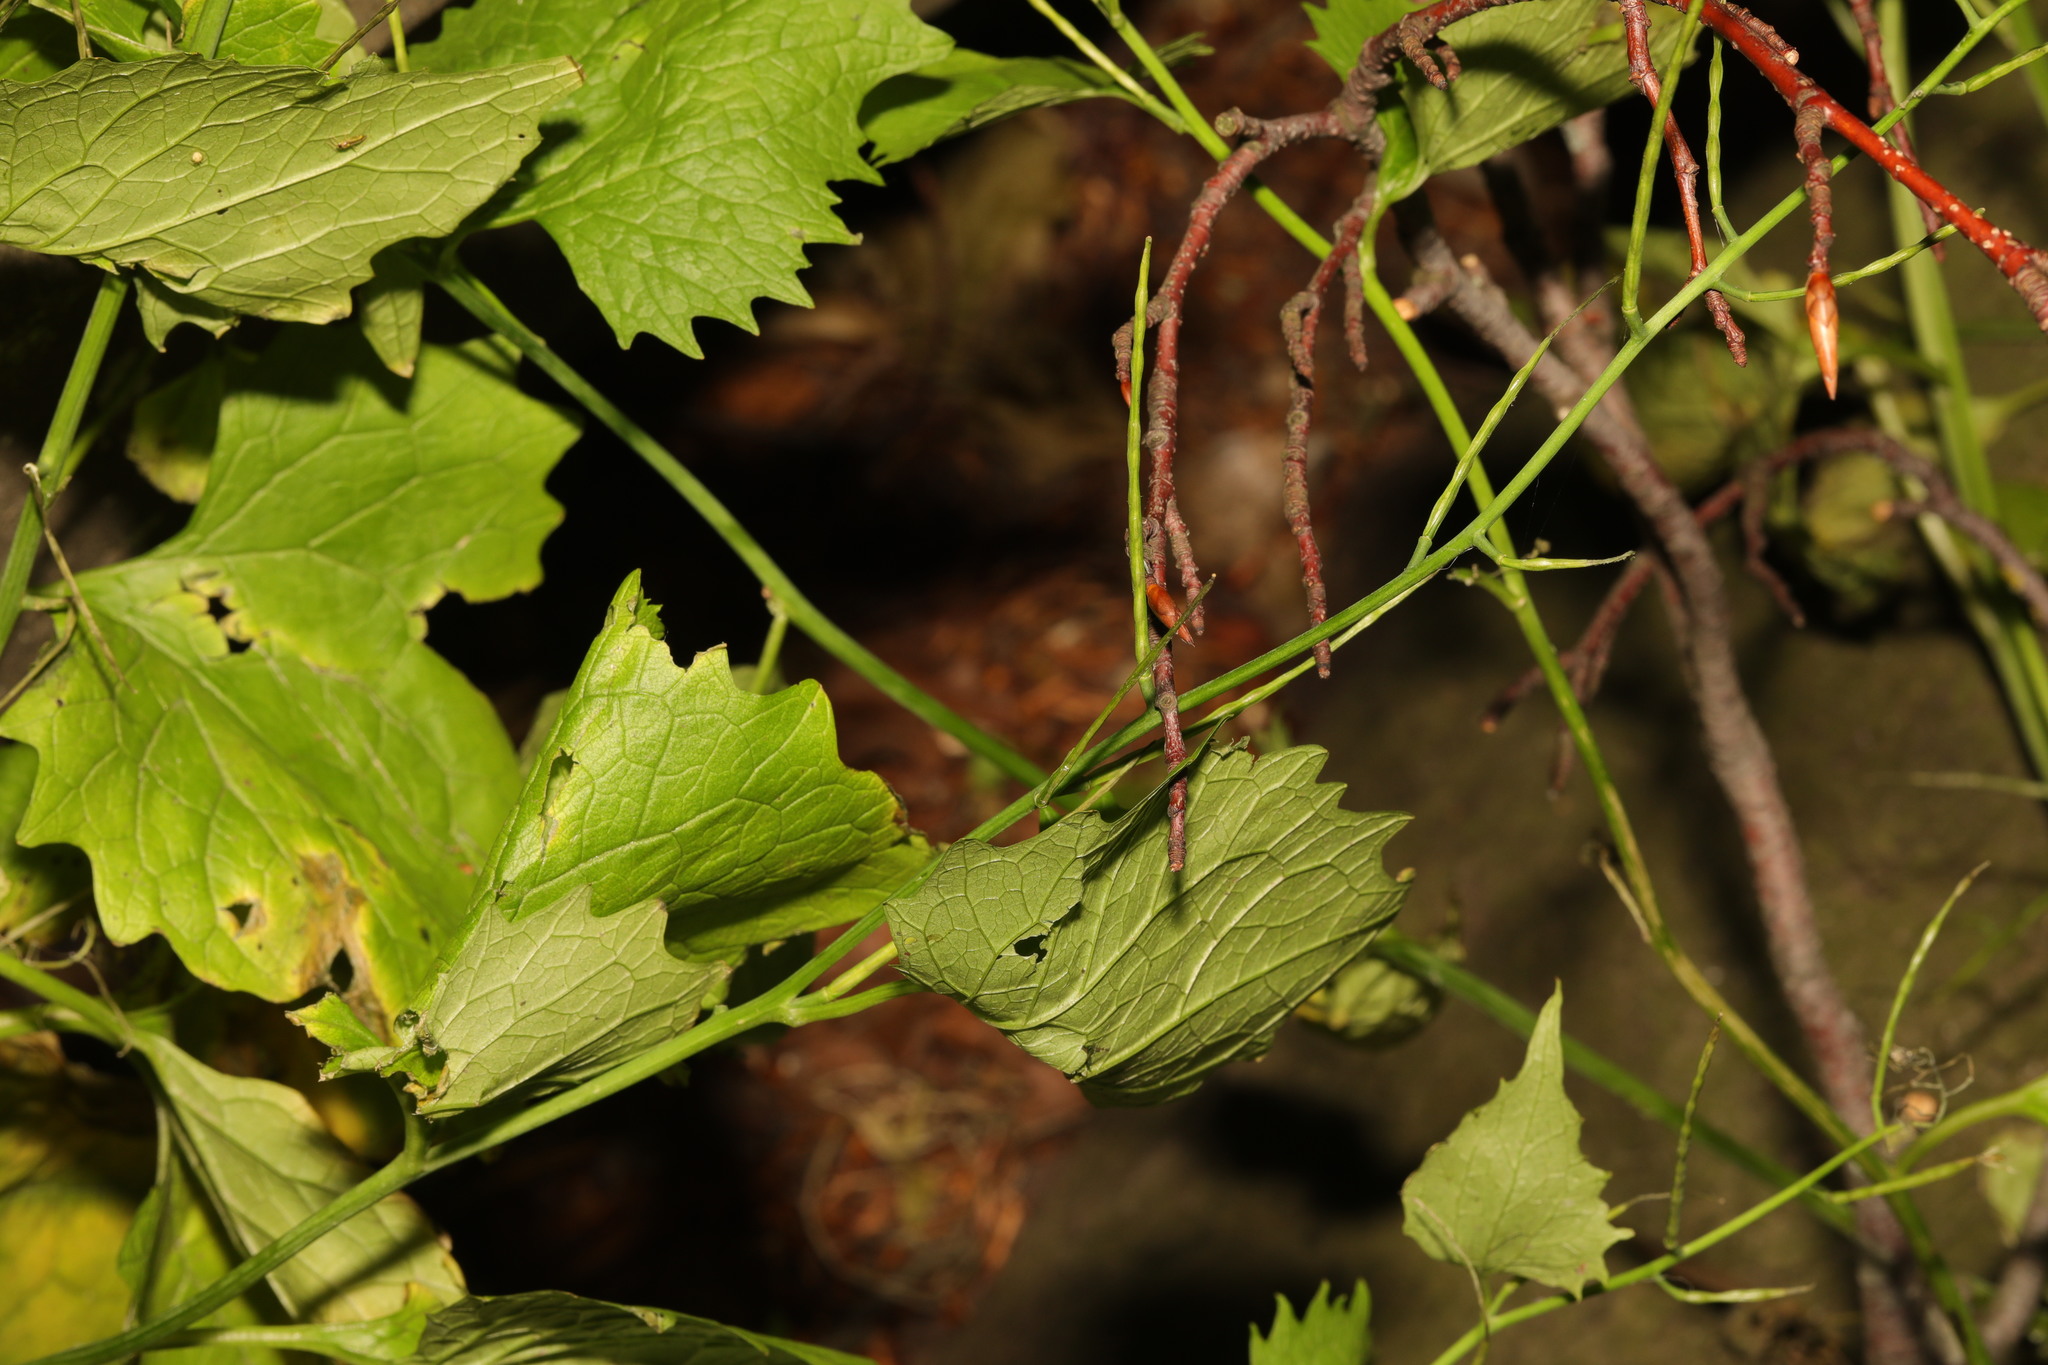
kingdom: Plantae
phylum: Tracheophyta
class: Magnoliopsida
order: Brassicales
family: Brassicaceae
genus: Alliaria
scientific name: Alliaria petiolata
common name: Garlic mustard
